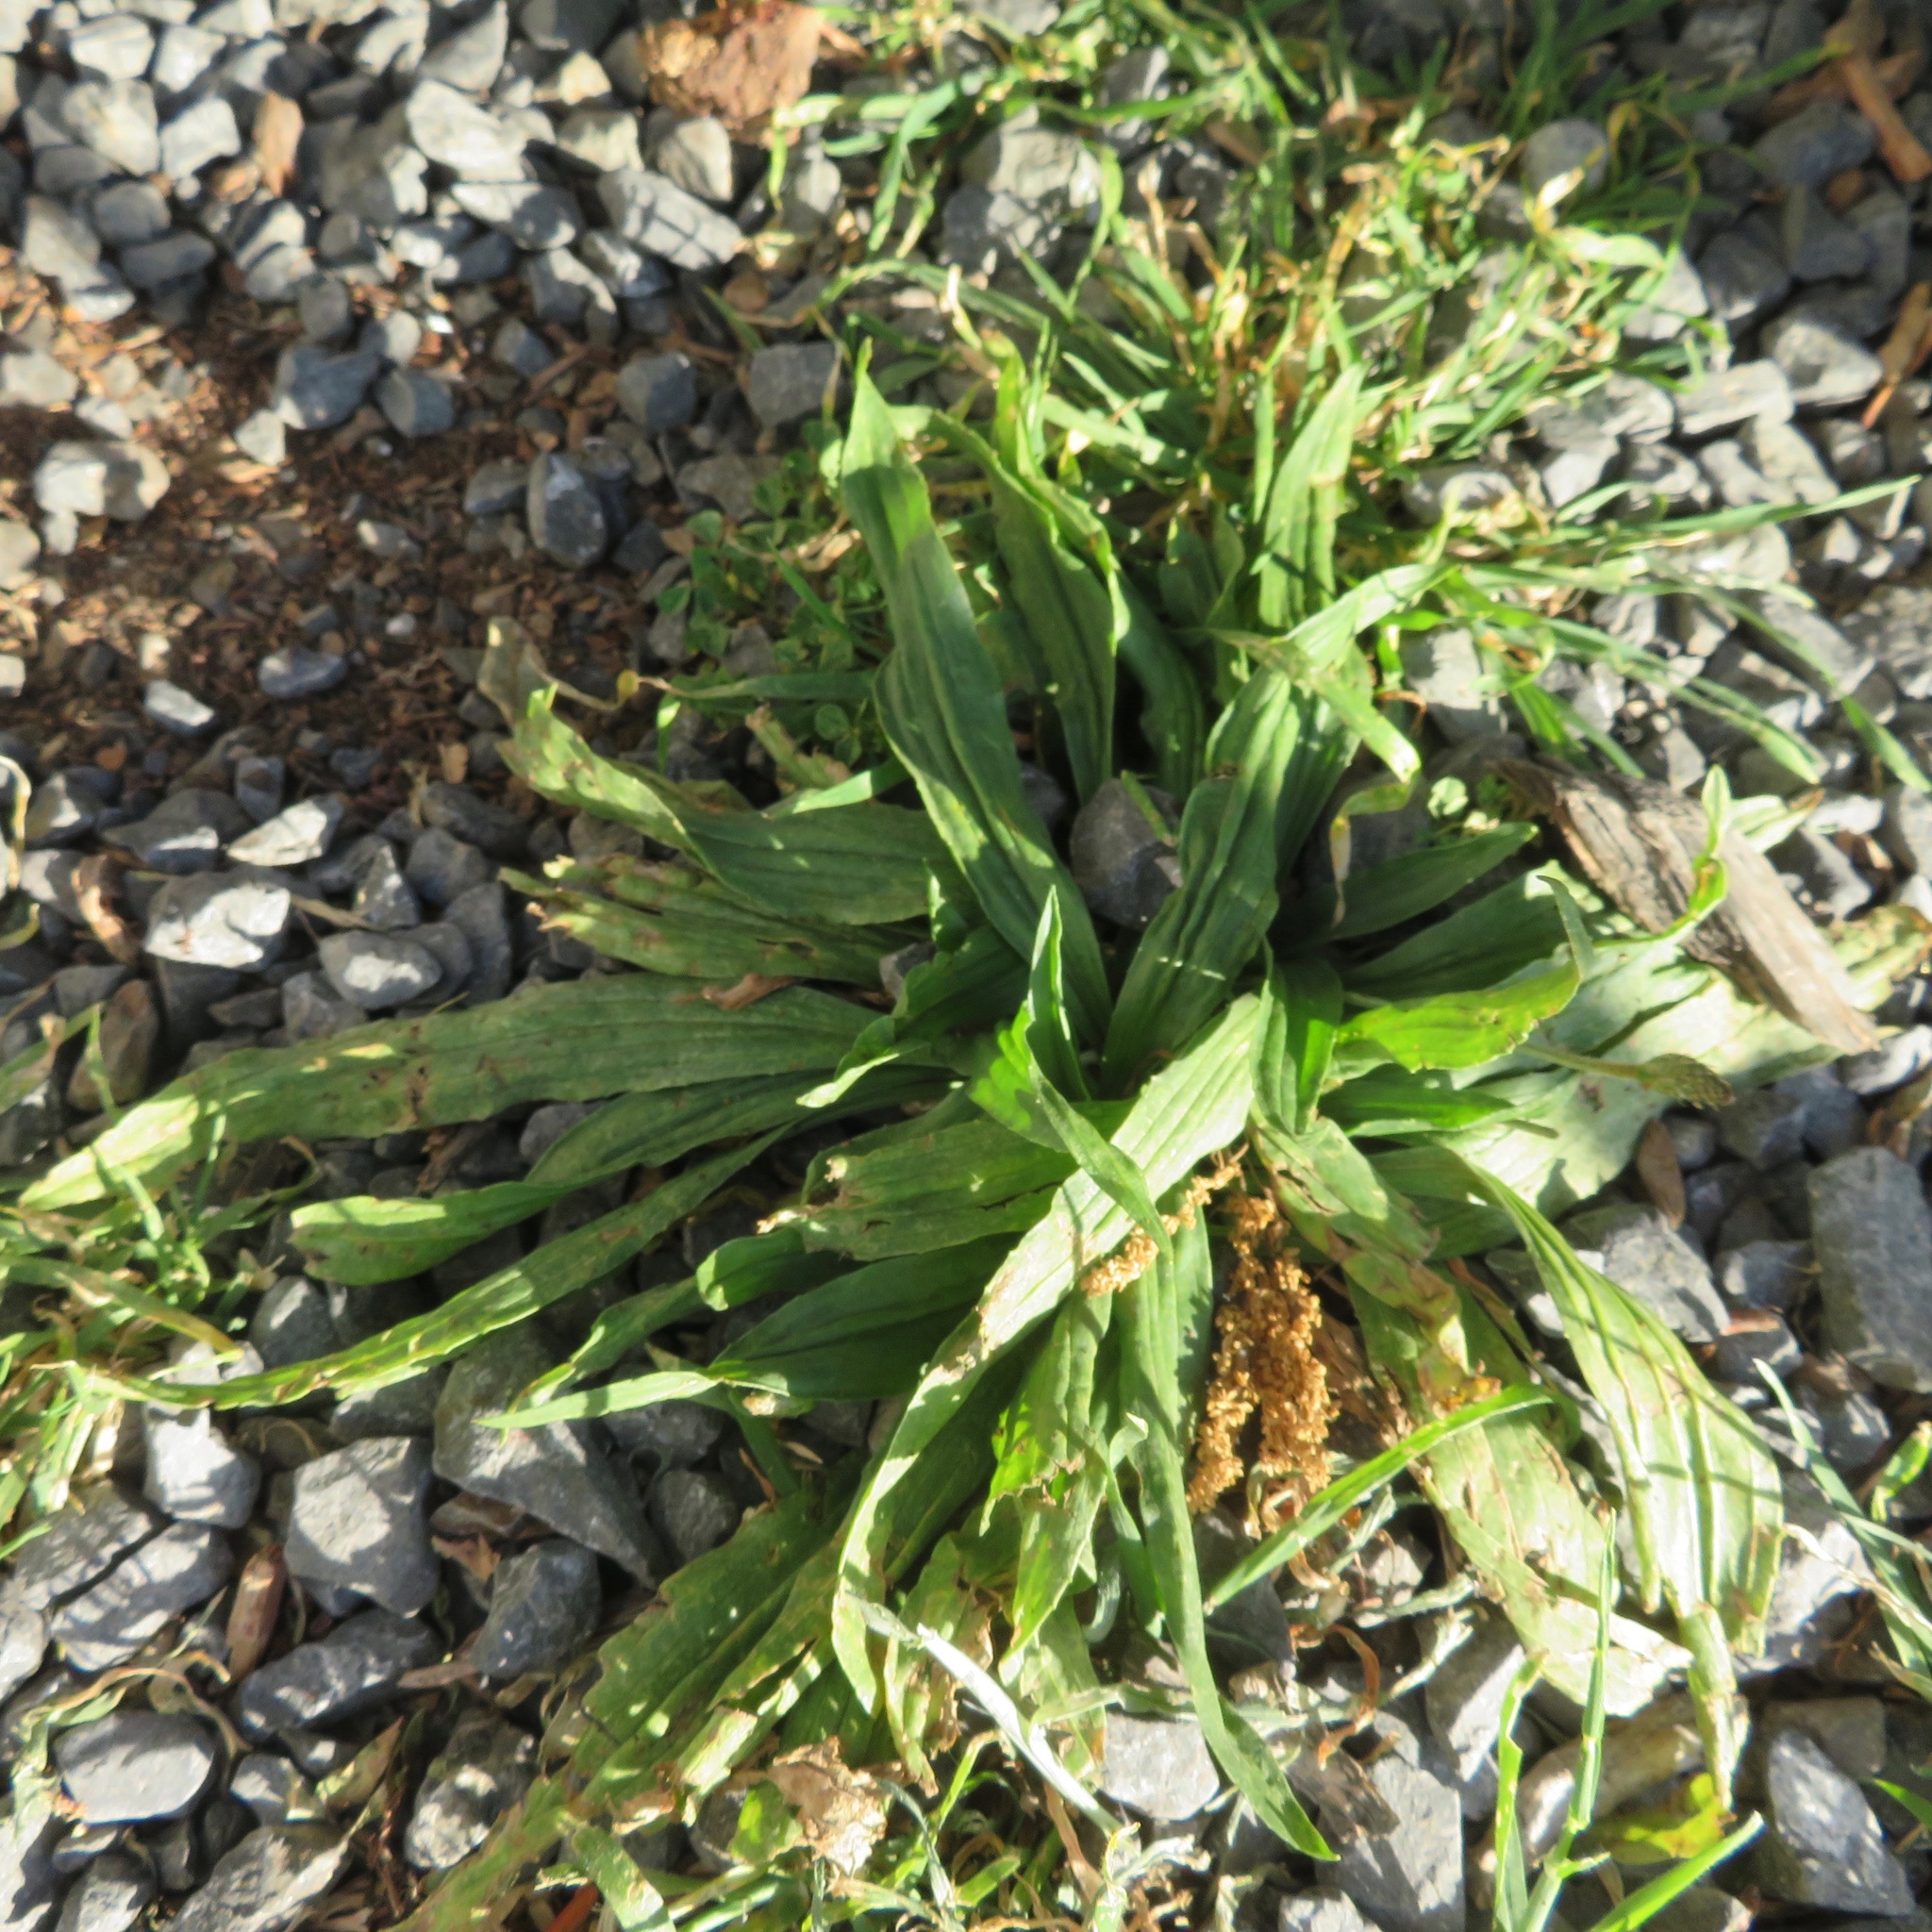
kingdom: Plantae
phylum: Tracheophyta
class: Magnoliopsida
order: Lamiales
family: Plantaginaceae
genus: Plantago
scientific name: Plantago lanceolata
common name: Ribwort plantain
